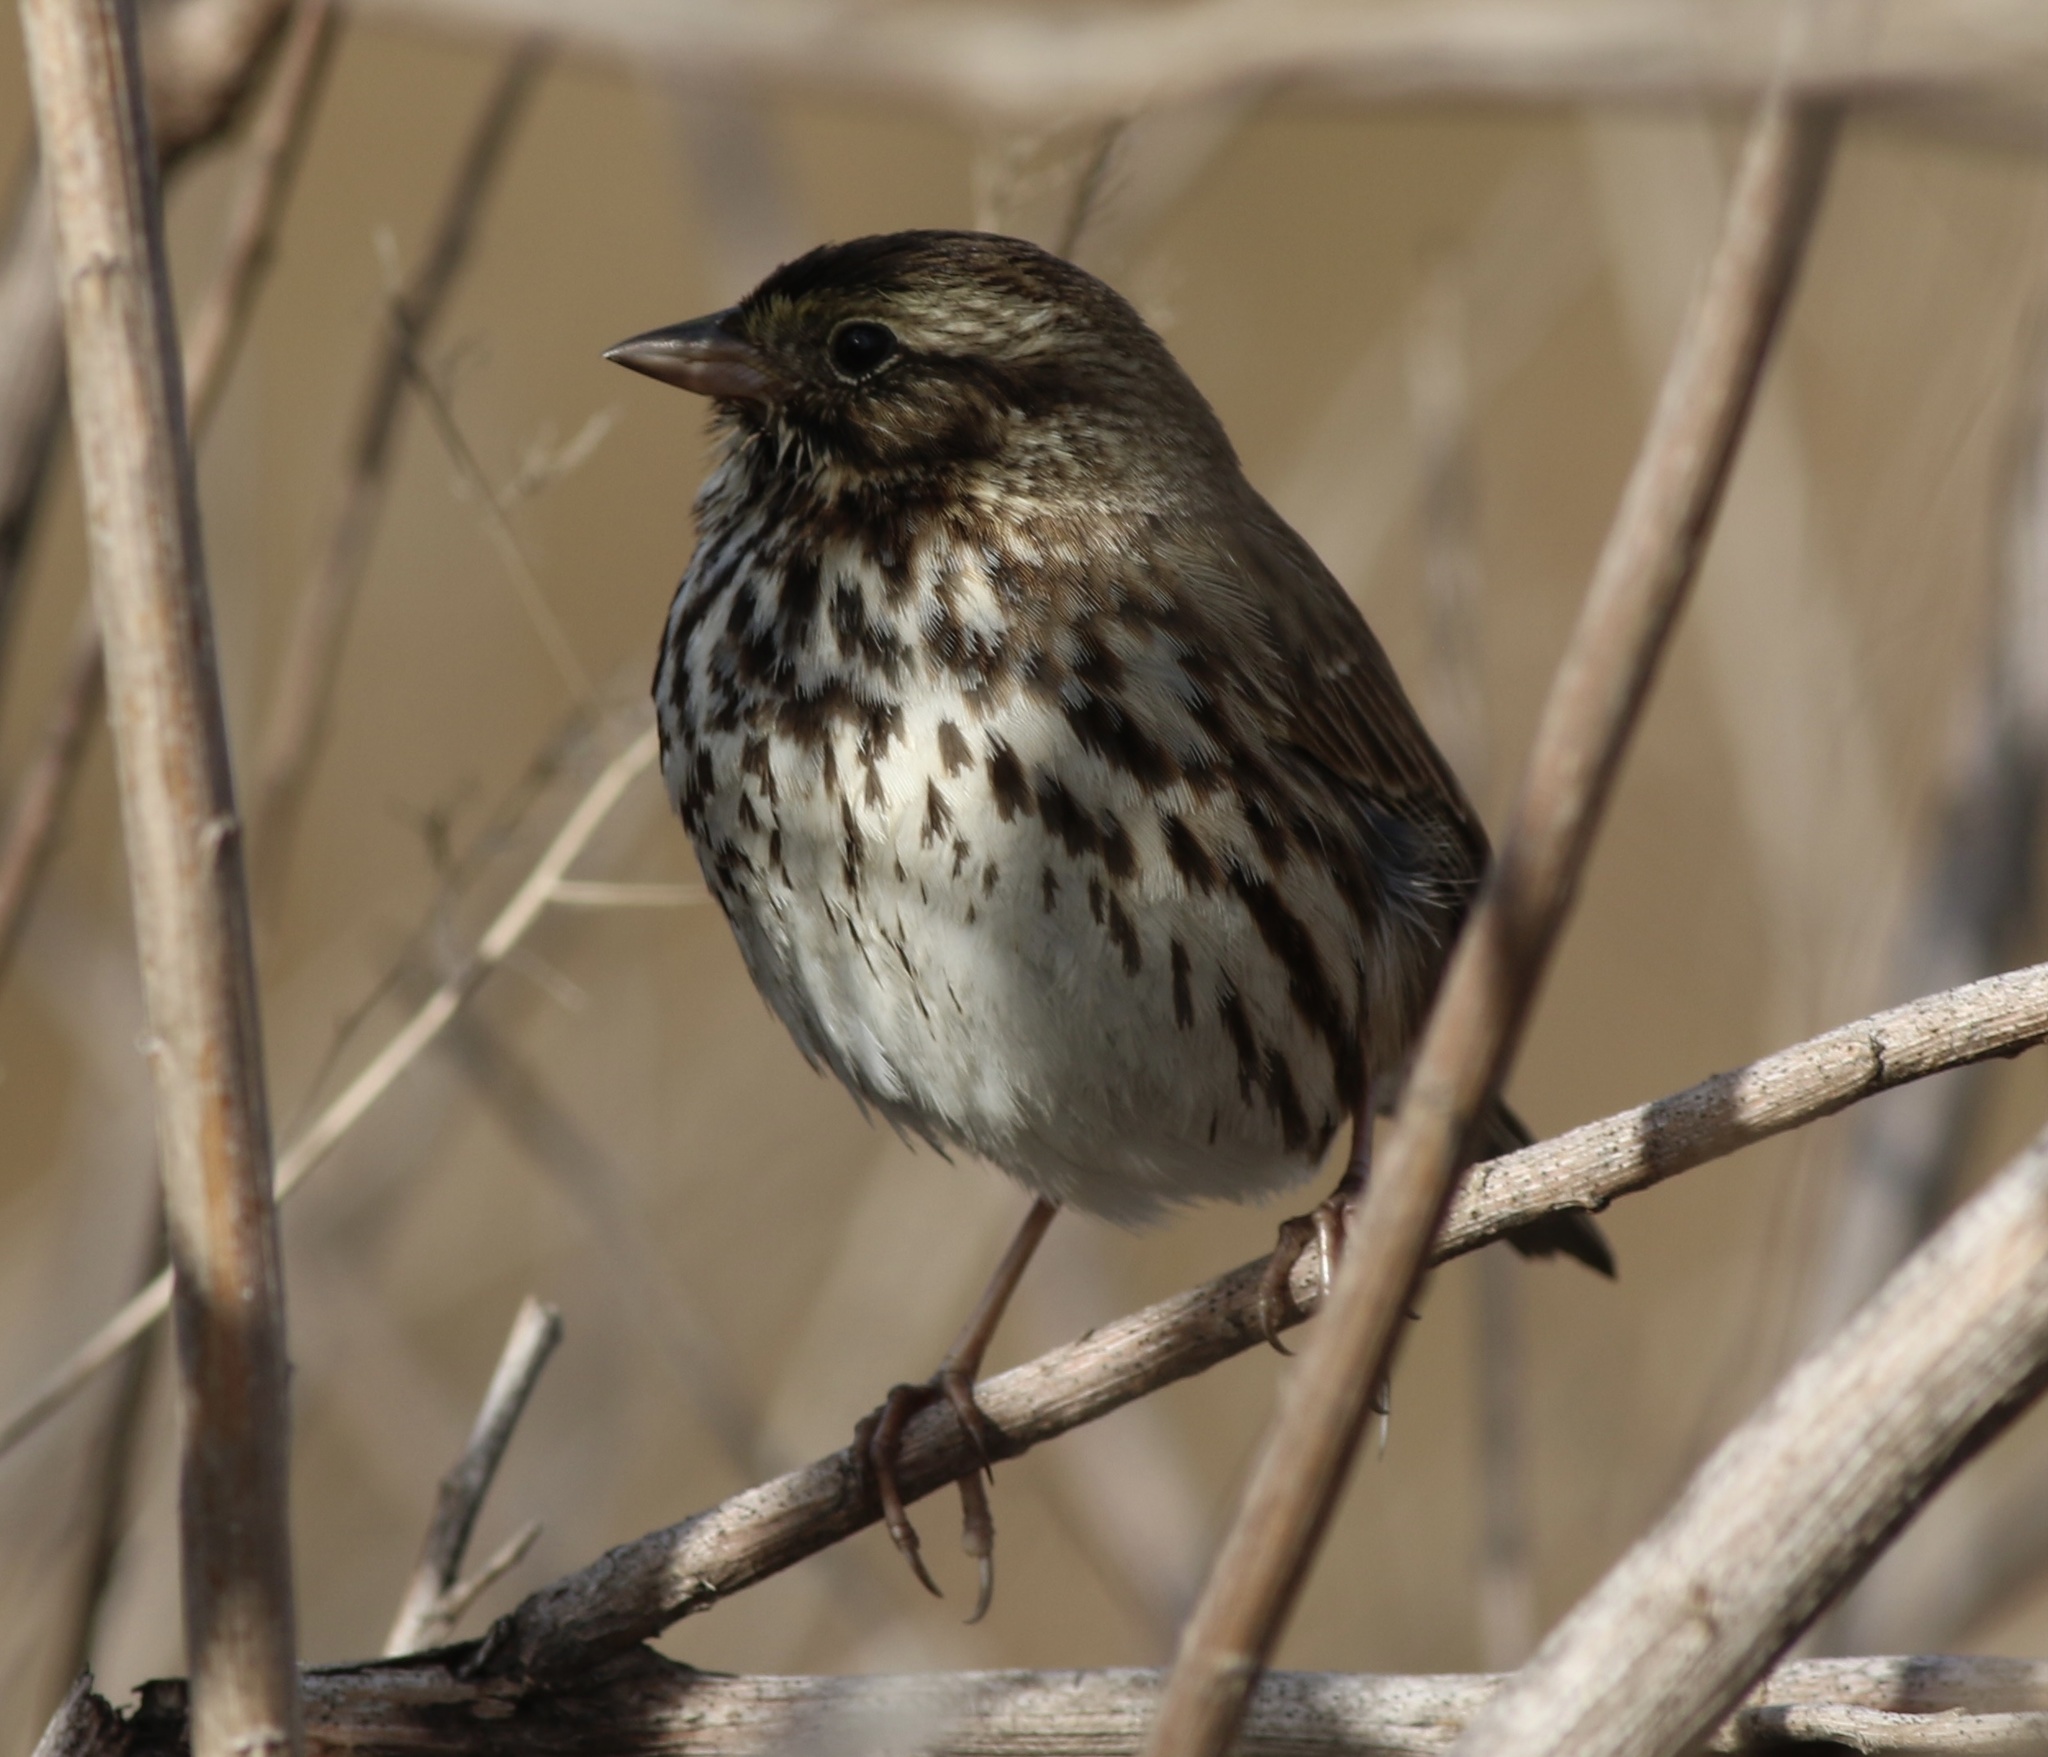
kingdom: Animalia
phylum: Chordata
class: Aves
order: Passeriformes
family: Passerellidae
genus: Passerculus
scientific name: Passerculus sandwichensis
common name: Savannah sparrow
